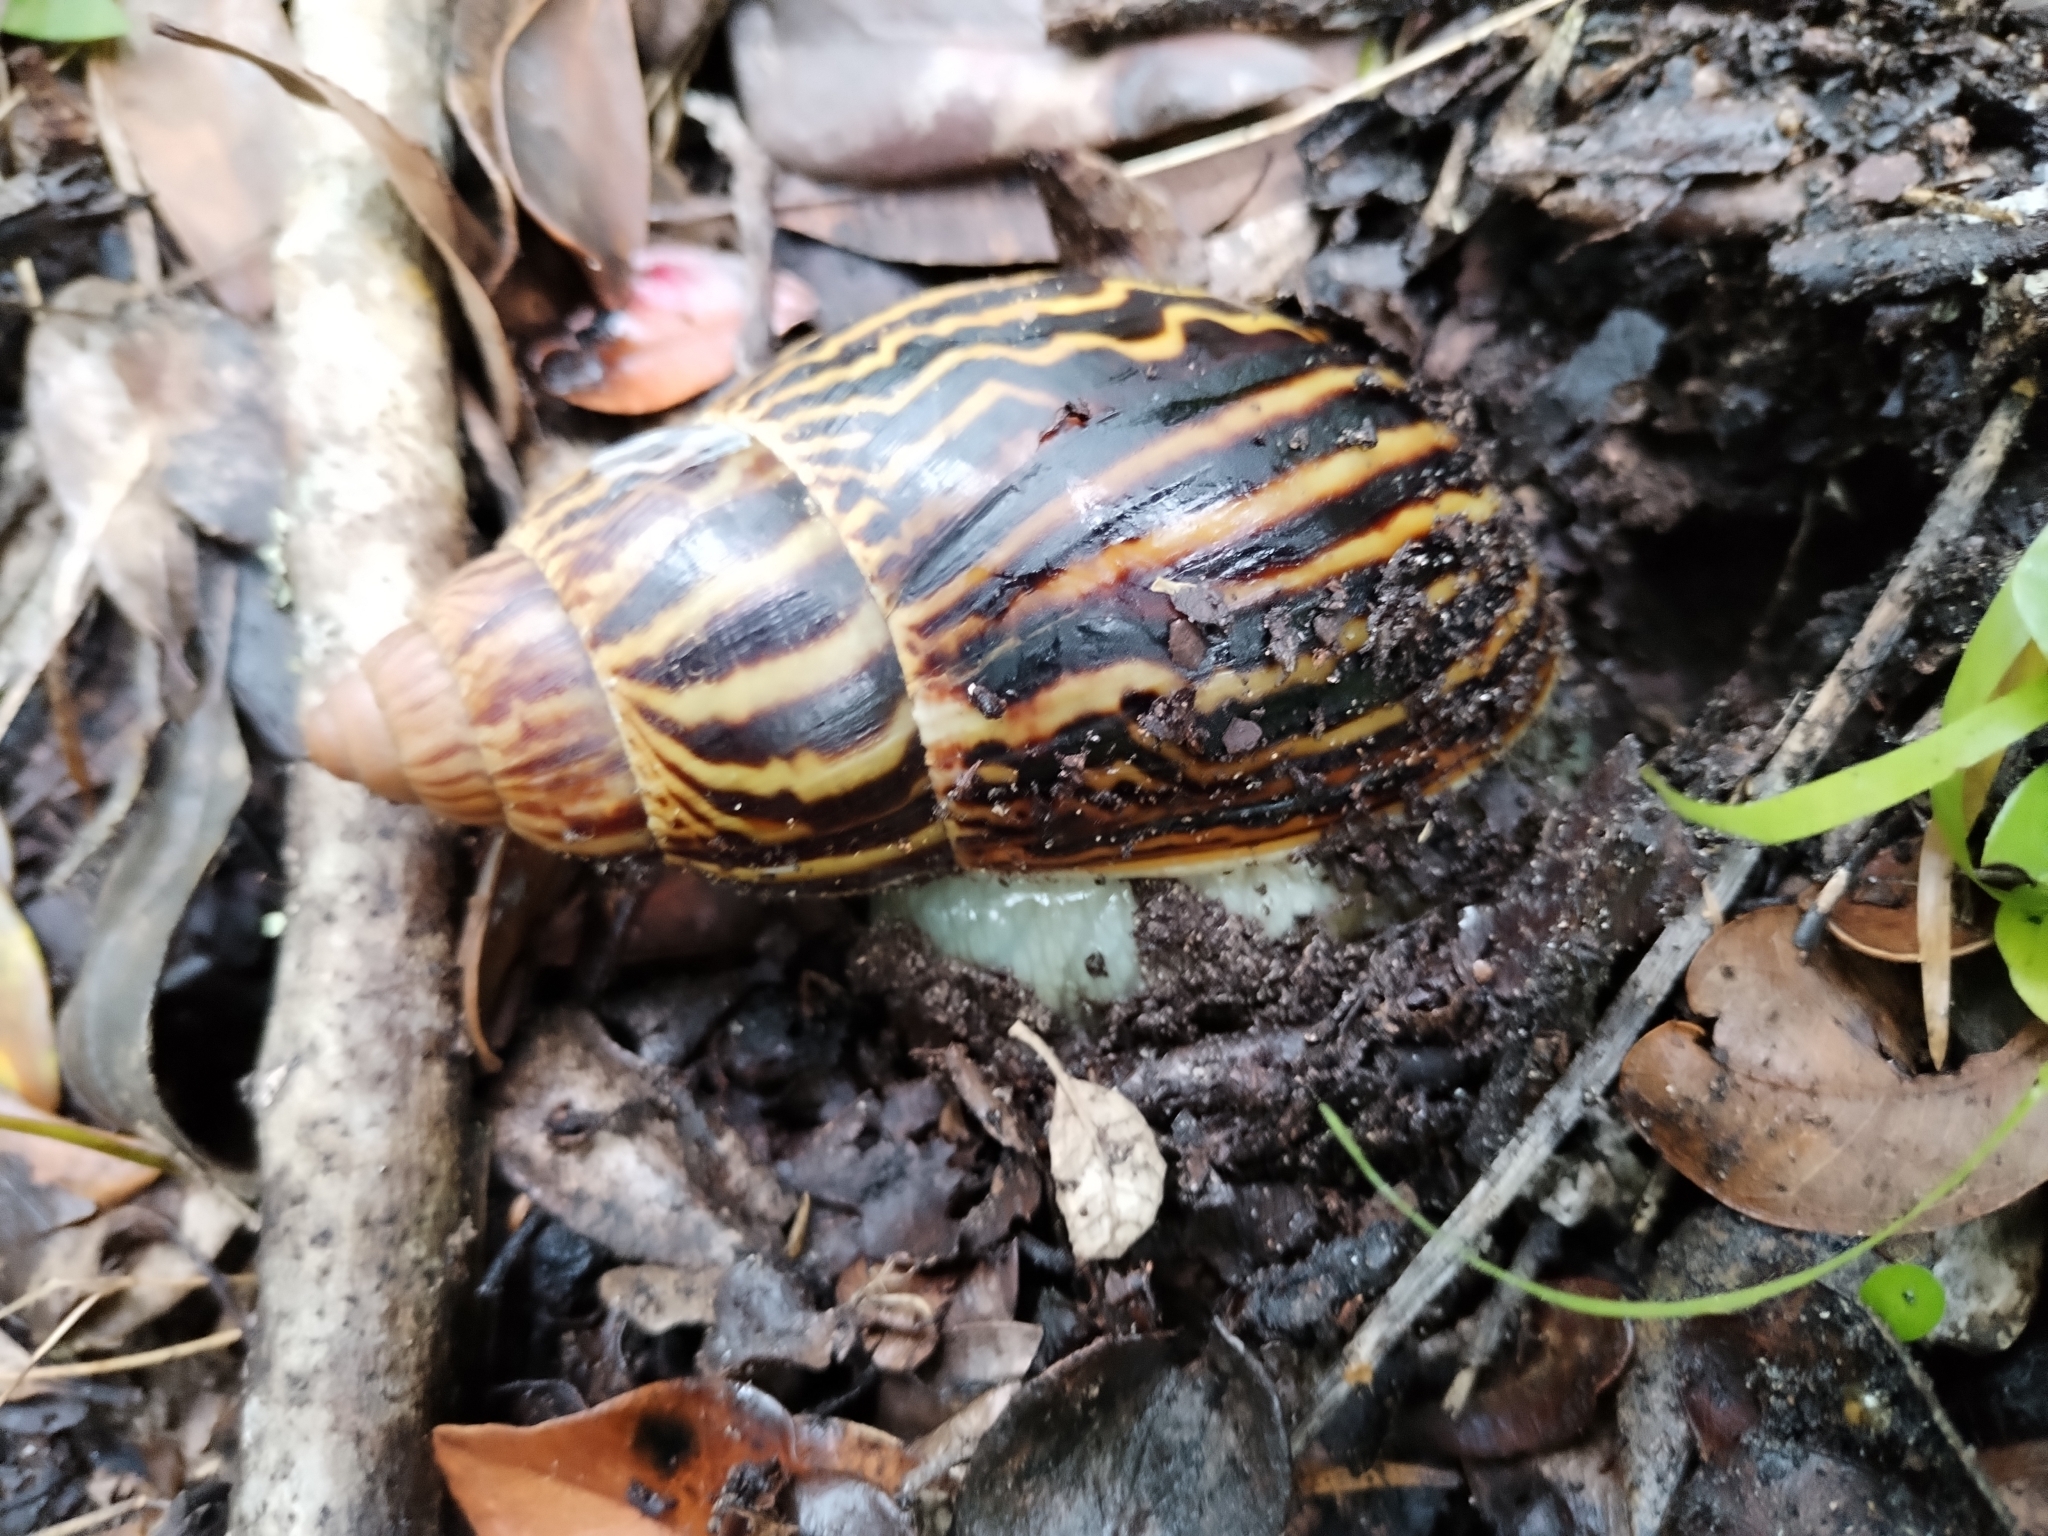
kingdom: Animalia
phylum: Mollusca
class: Gastropoda
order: Stylommatophora
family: Achatinidae
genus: Cochlitoma
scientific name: Cochlitoma zebra
